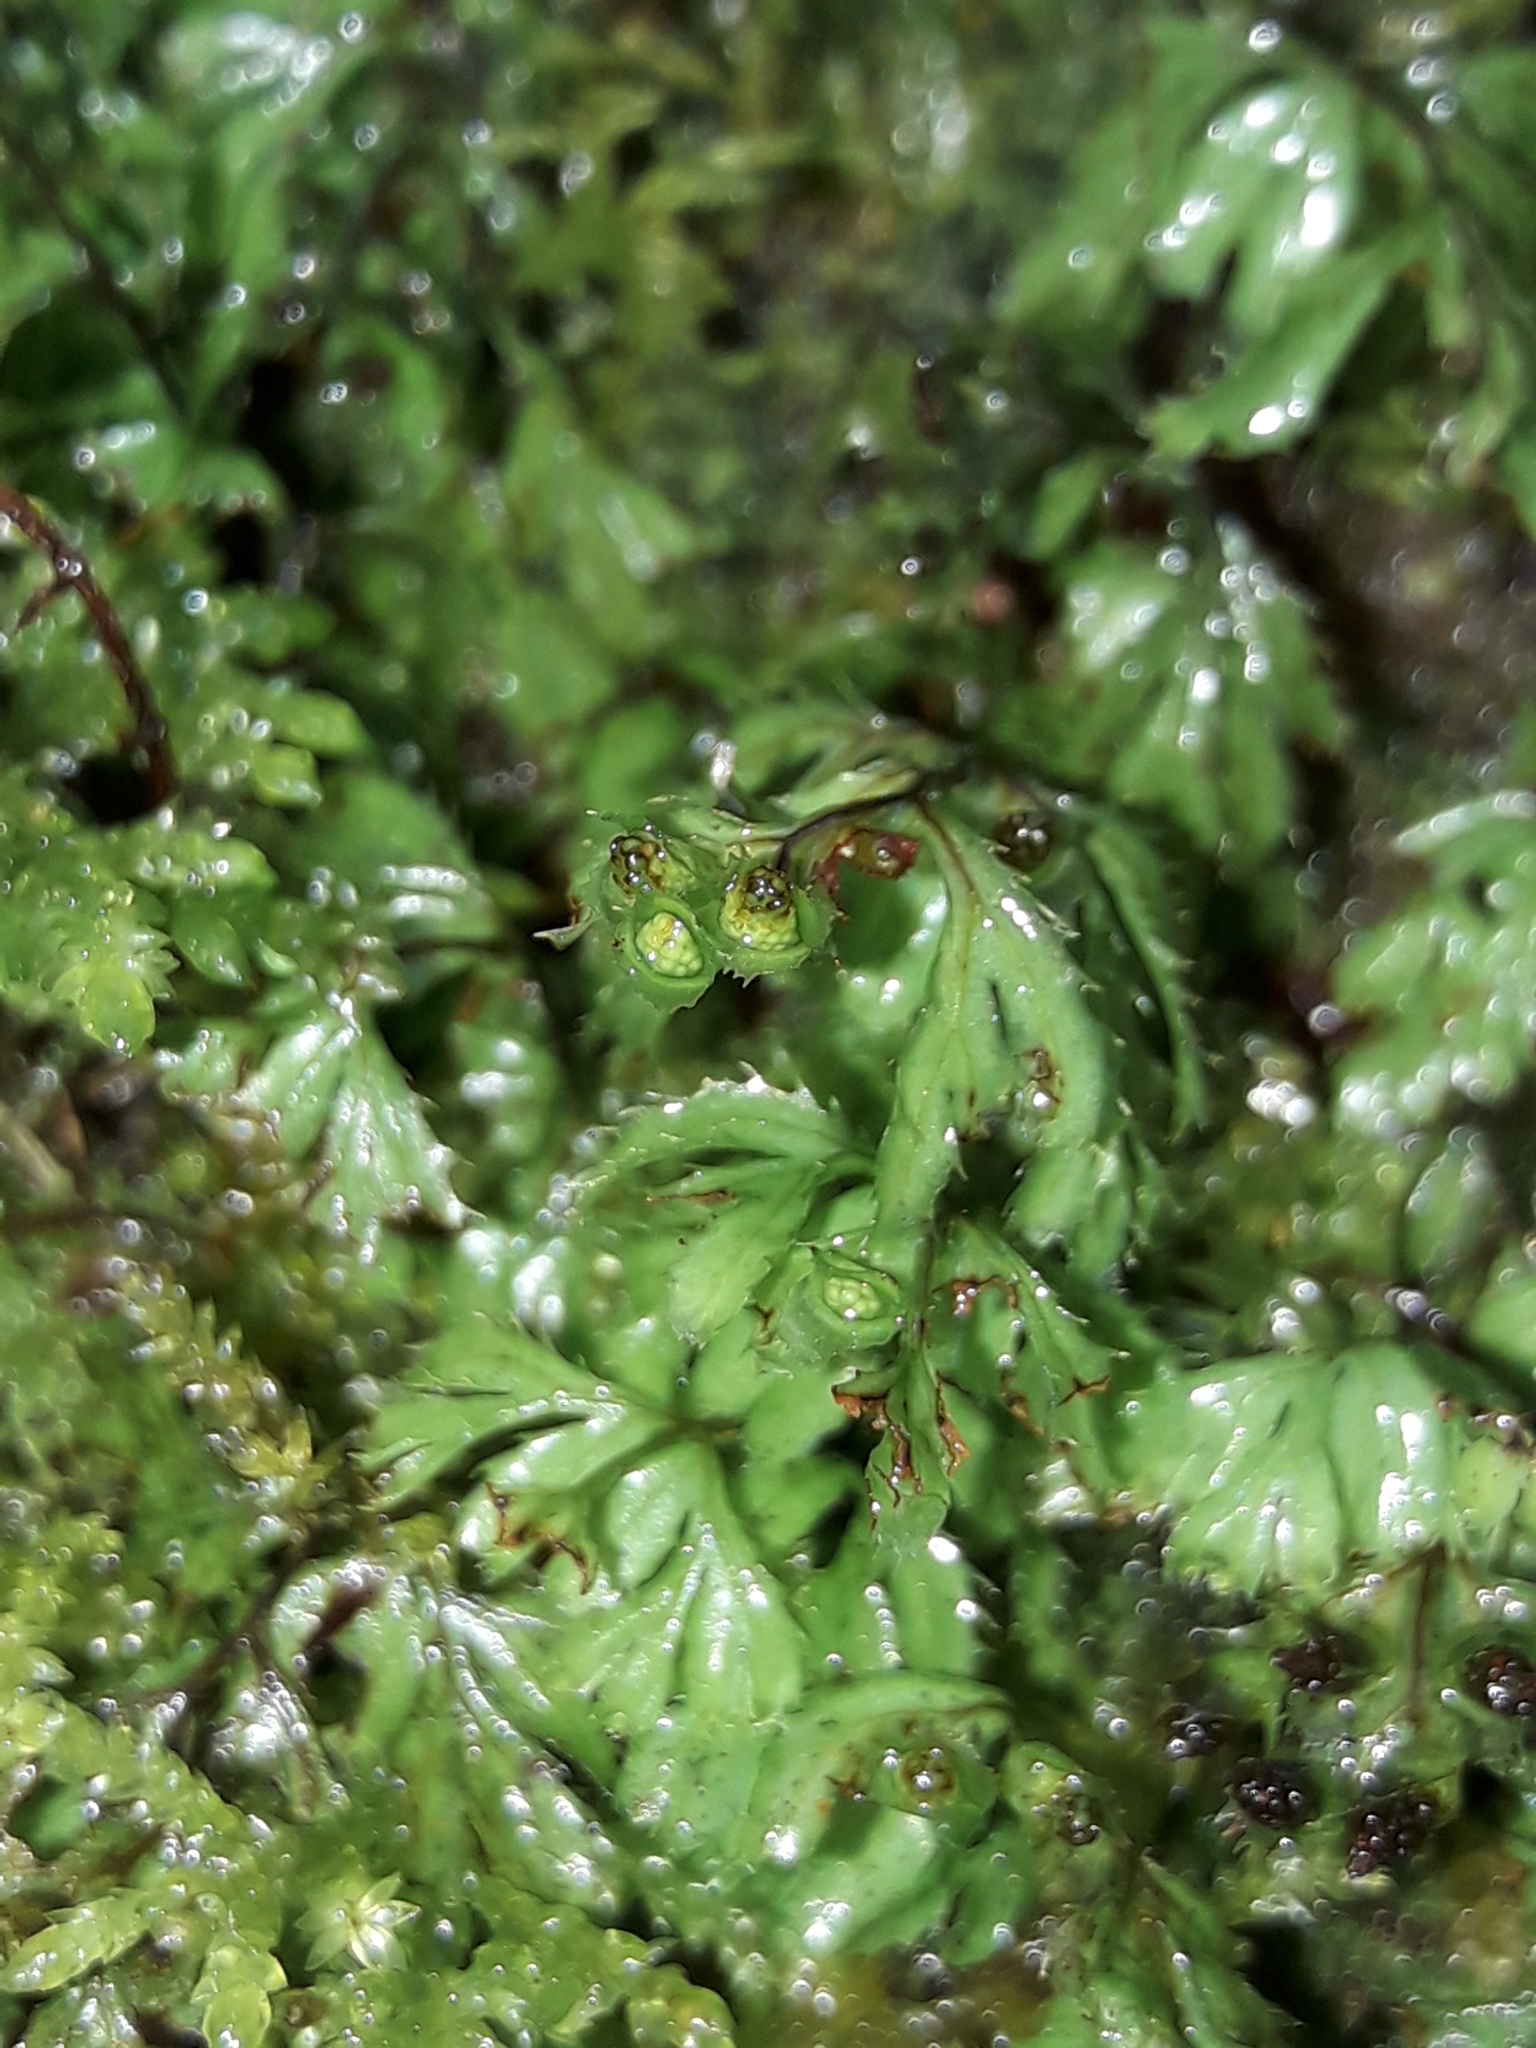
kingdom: Plantae
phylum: Tracheophyta
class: Polypodiopsida
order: Hymenophyllales
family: Hymenophyllaceae
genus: Hymenophyllum
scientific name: Hymenophyllum revolutum
